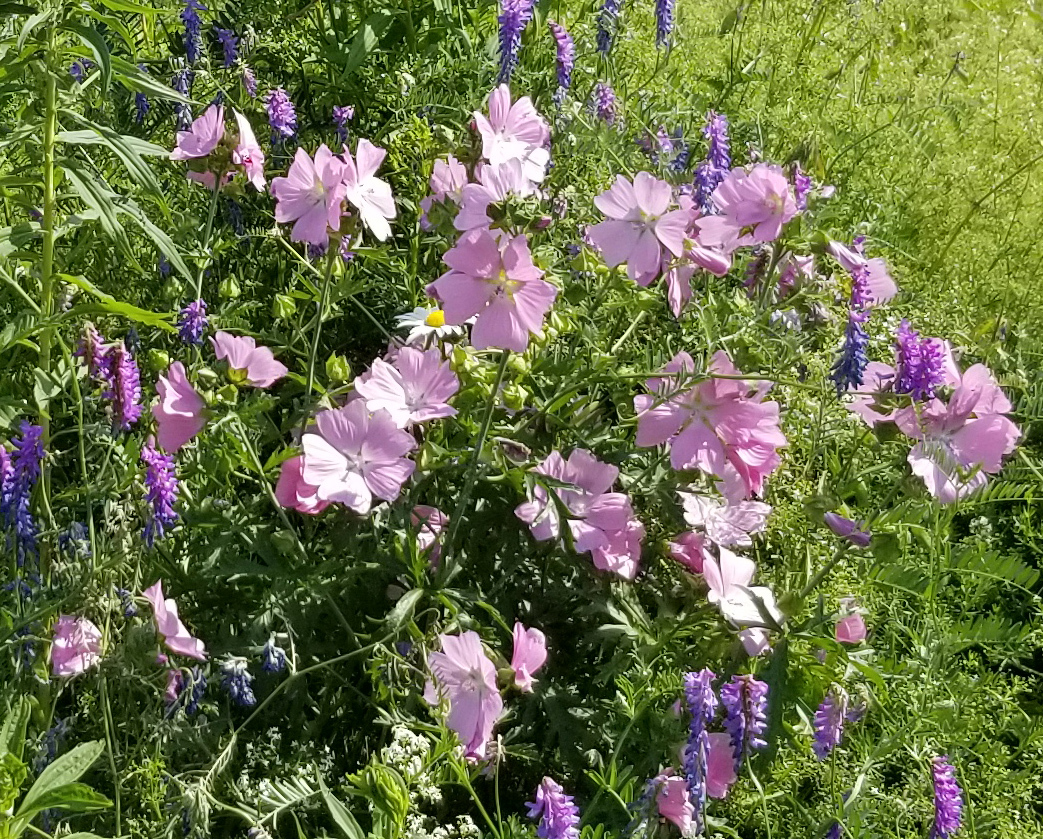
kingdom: Plantae
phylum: Tracheophyta
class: Magnoliopsida
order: Malvales
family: Malvaceae
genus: Malva
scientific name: Malva moschata
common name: Musk mallow
